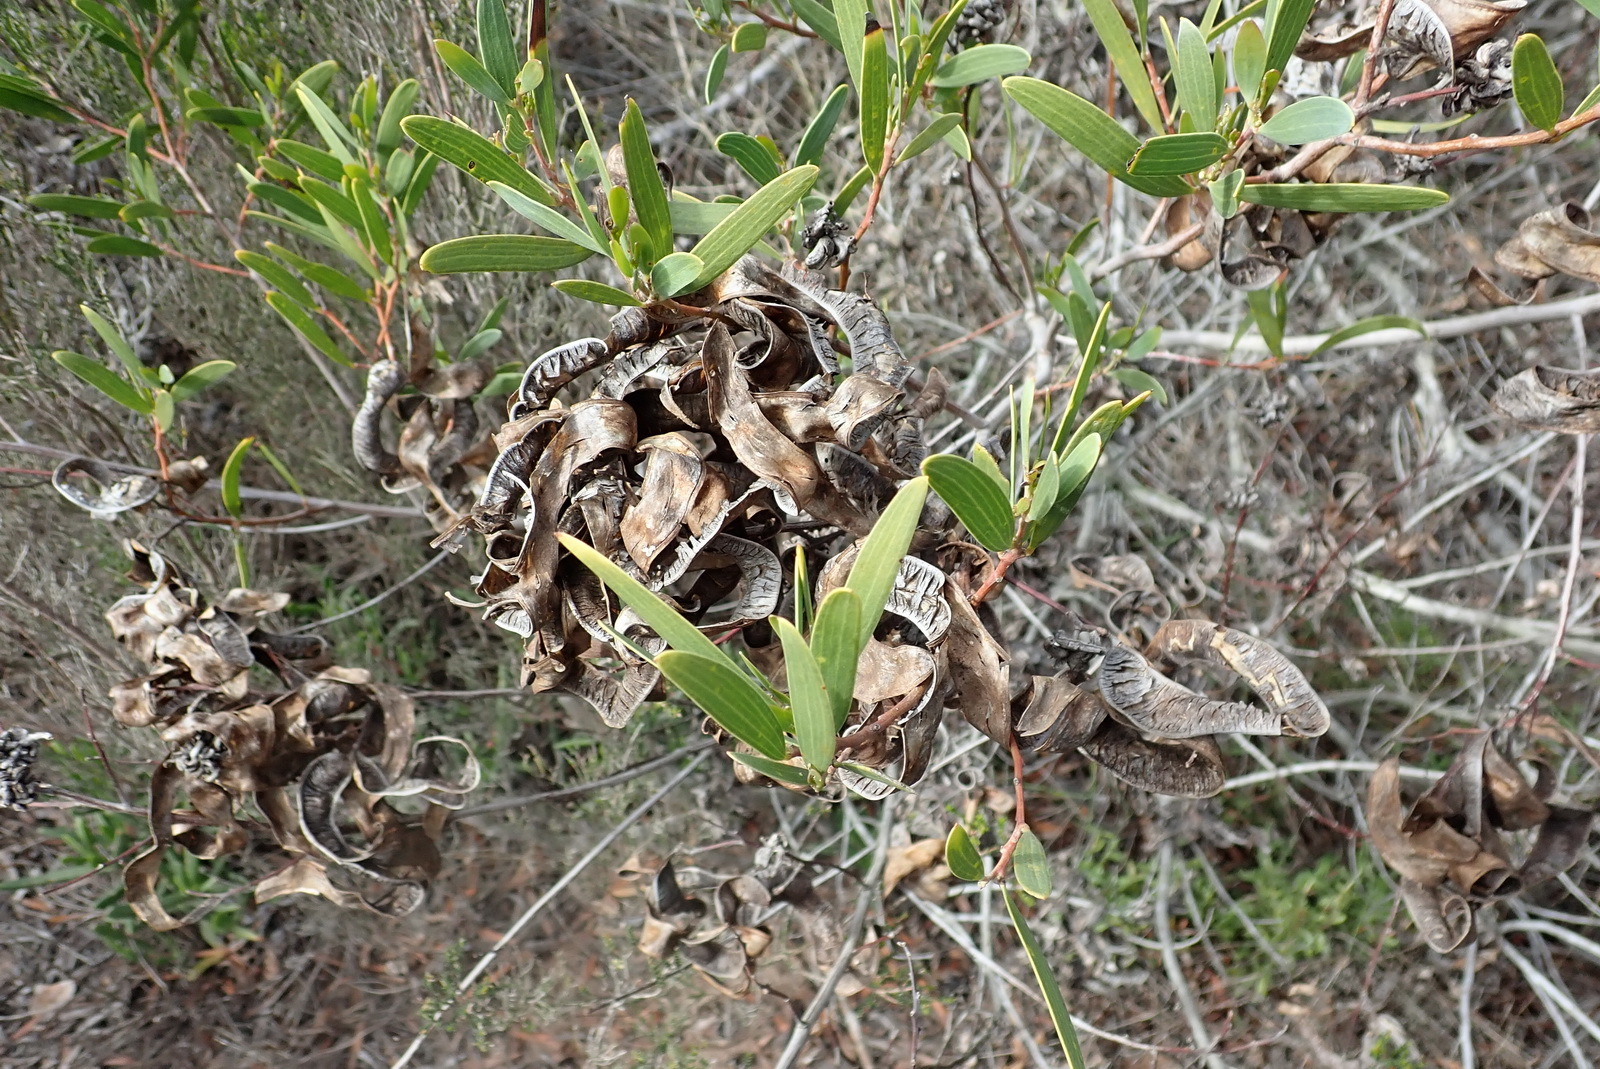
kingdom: Plantae
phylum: Tracheophyta
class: Magnoliopsida
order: Fabales
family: Fabaceae
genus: Acacia
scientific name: Acacia cyclops
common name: Coastal wattle
